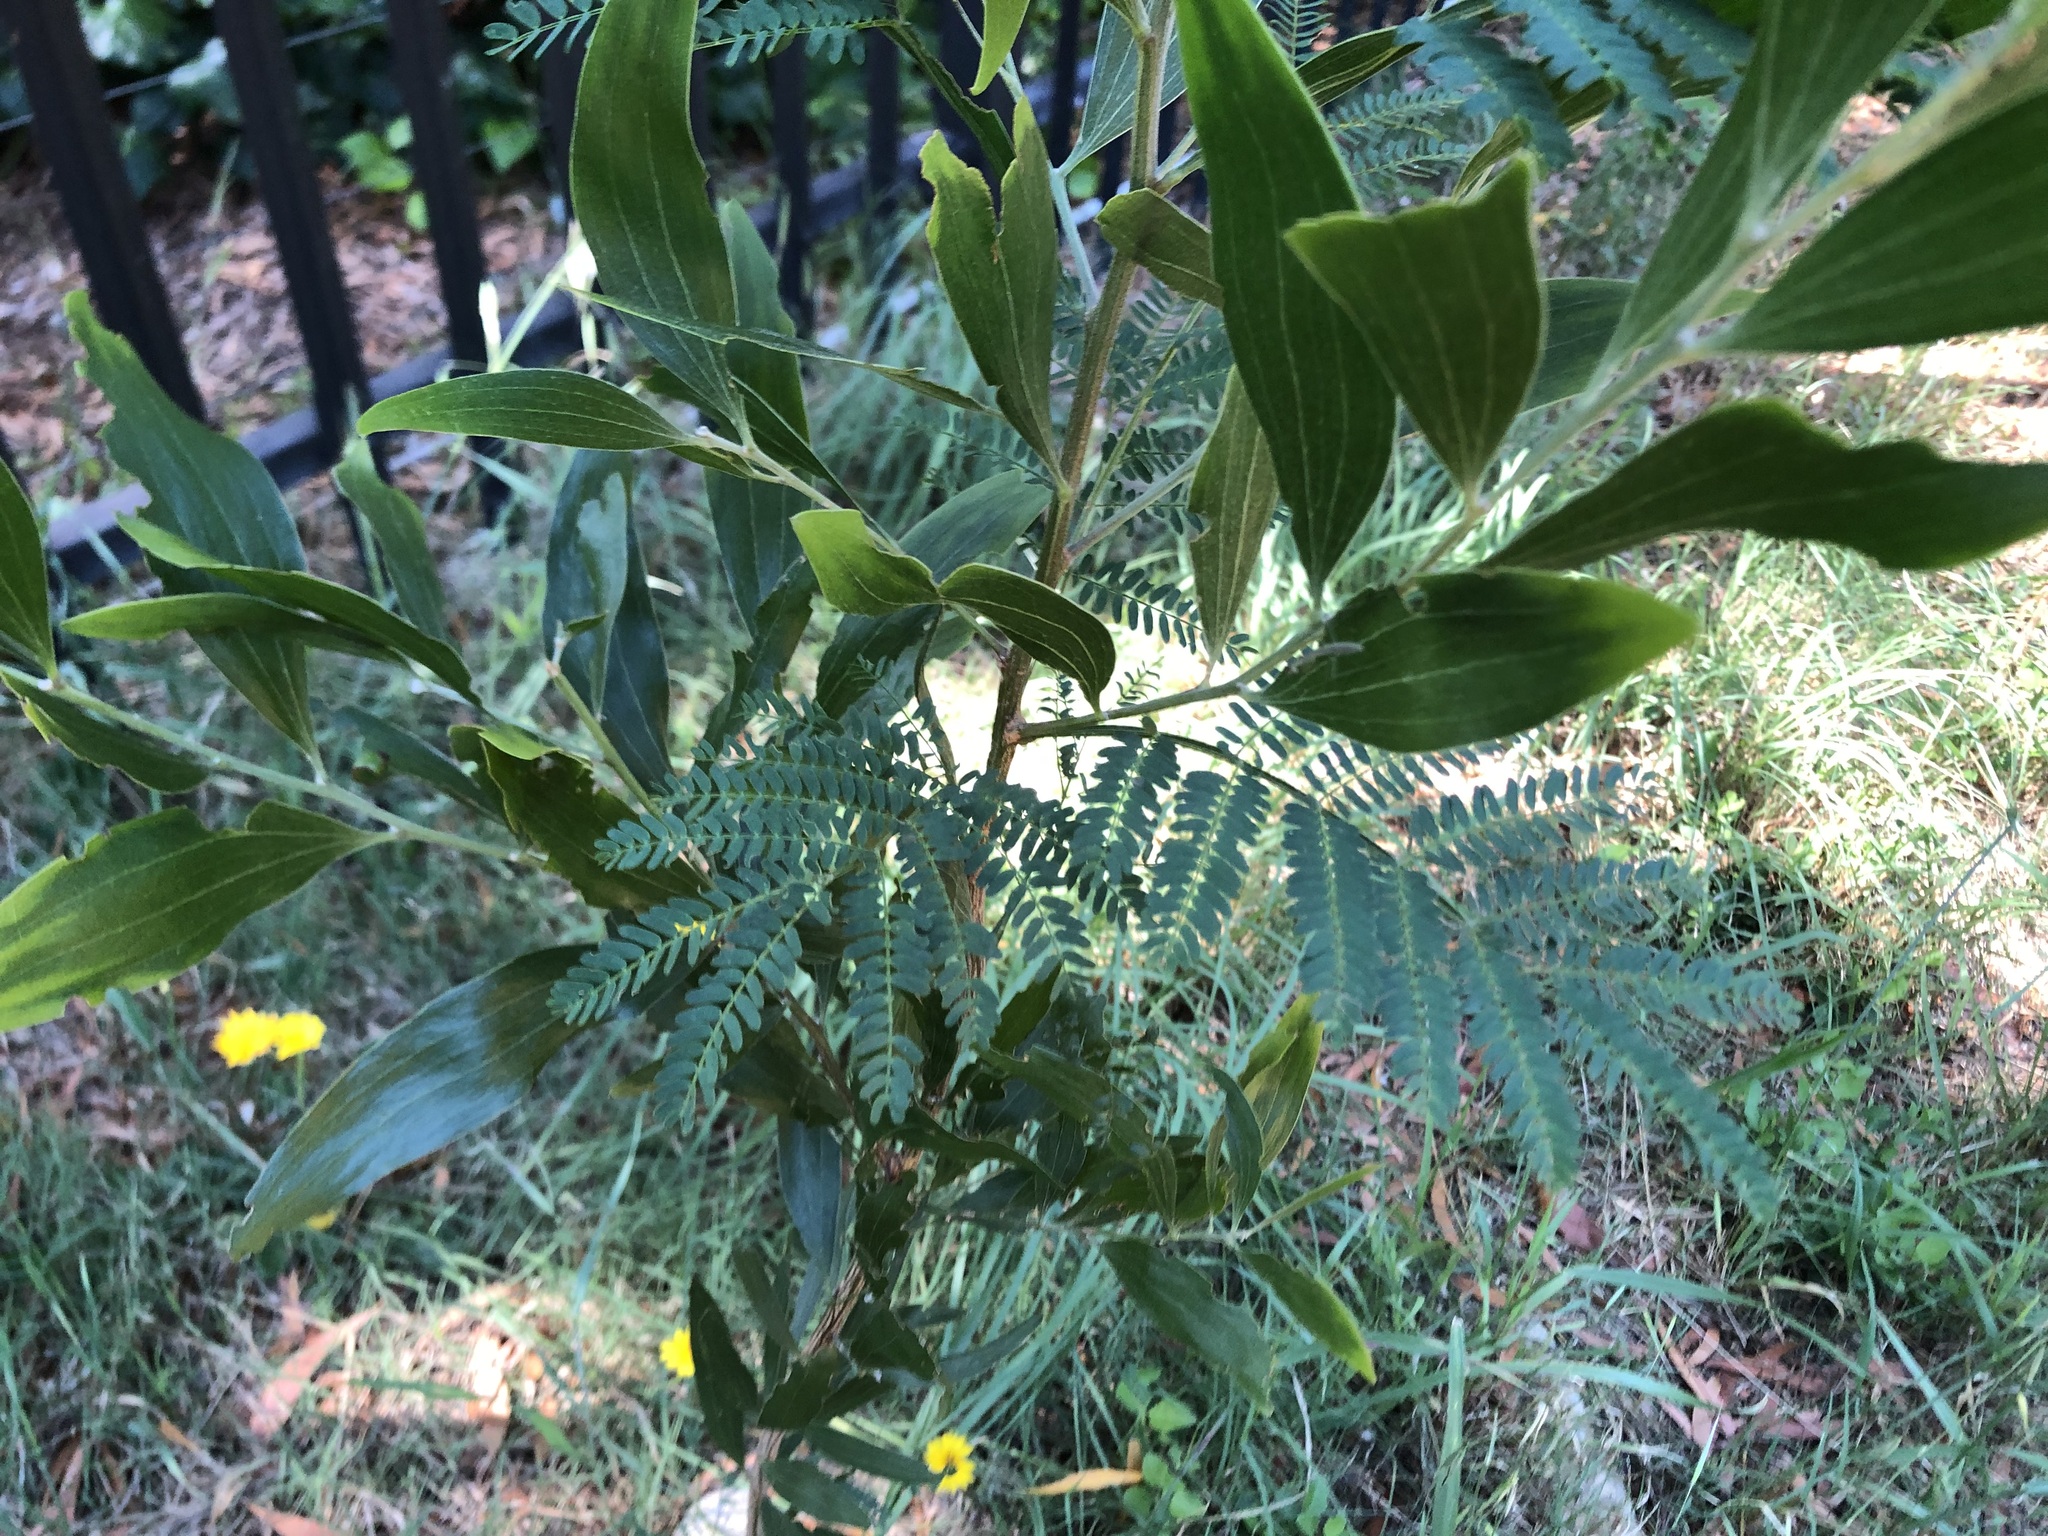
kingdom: Plantae
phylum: Tracheophyta
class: Magnoliopsida
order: Fabales
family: Fabaceae
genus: Acacia
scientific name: Acacia melanoxylon
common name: Blackwood
